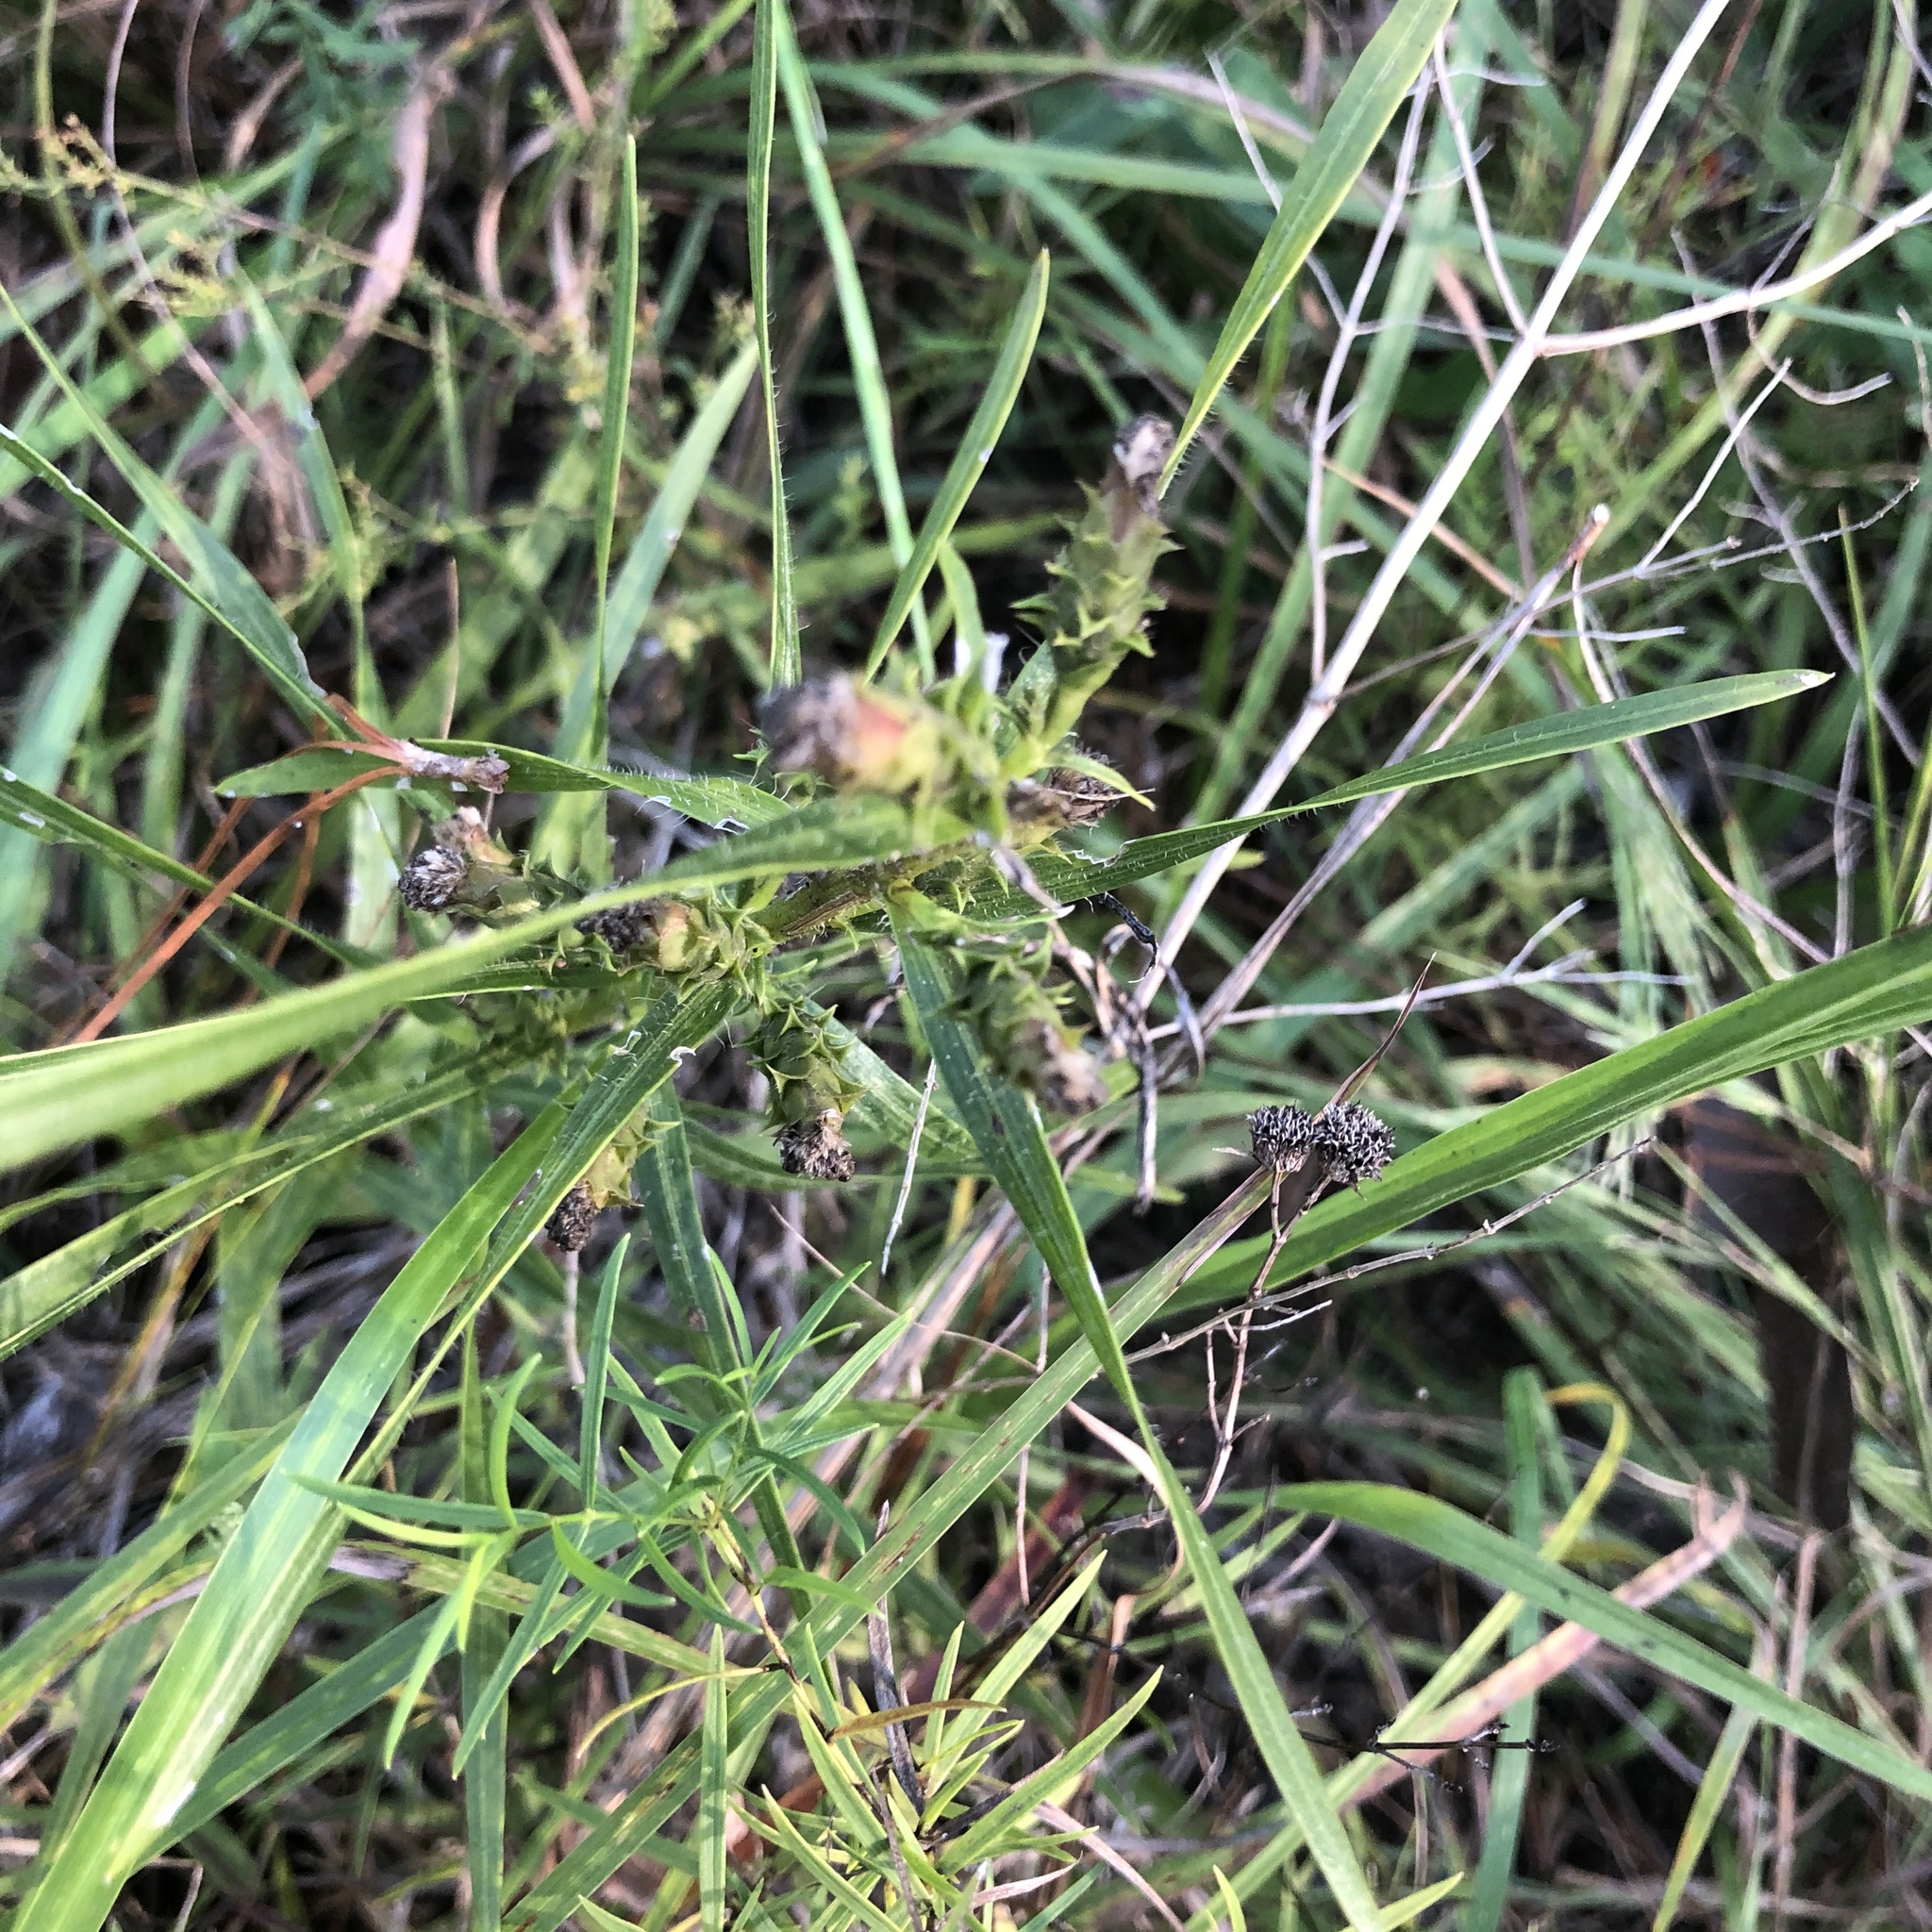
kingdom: Plantae
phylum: Tracheophyta
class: Magnoliopsida
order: Asterales
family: Asteraceae
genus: Liatris
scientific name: Liatris hirsuta
